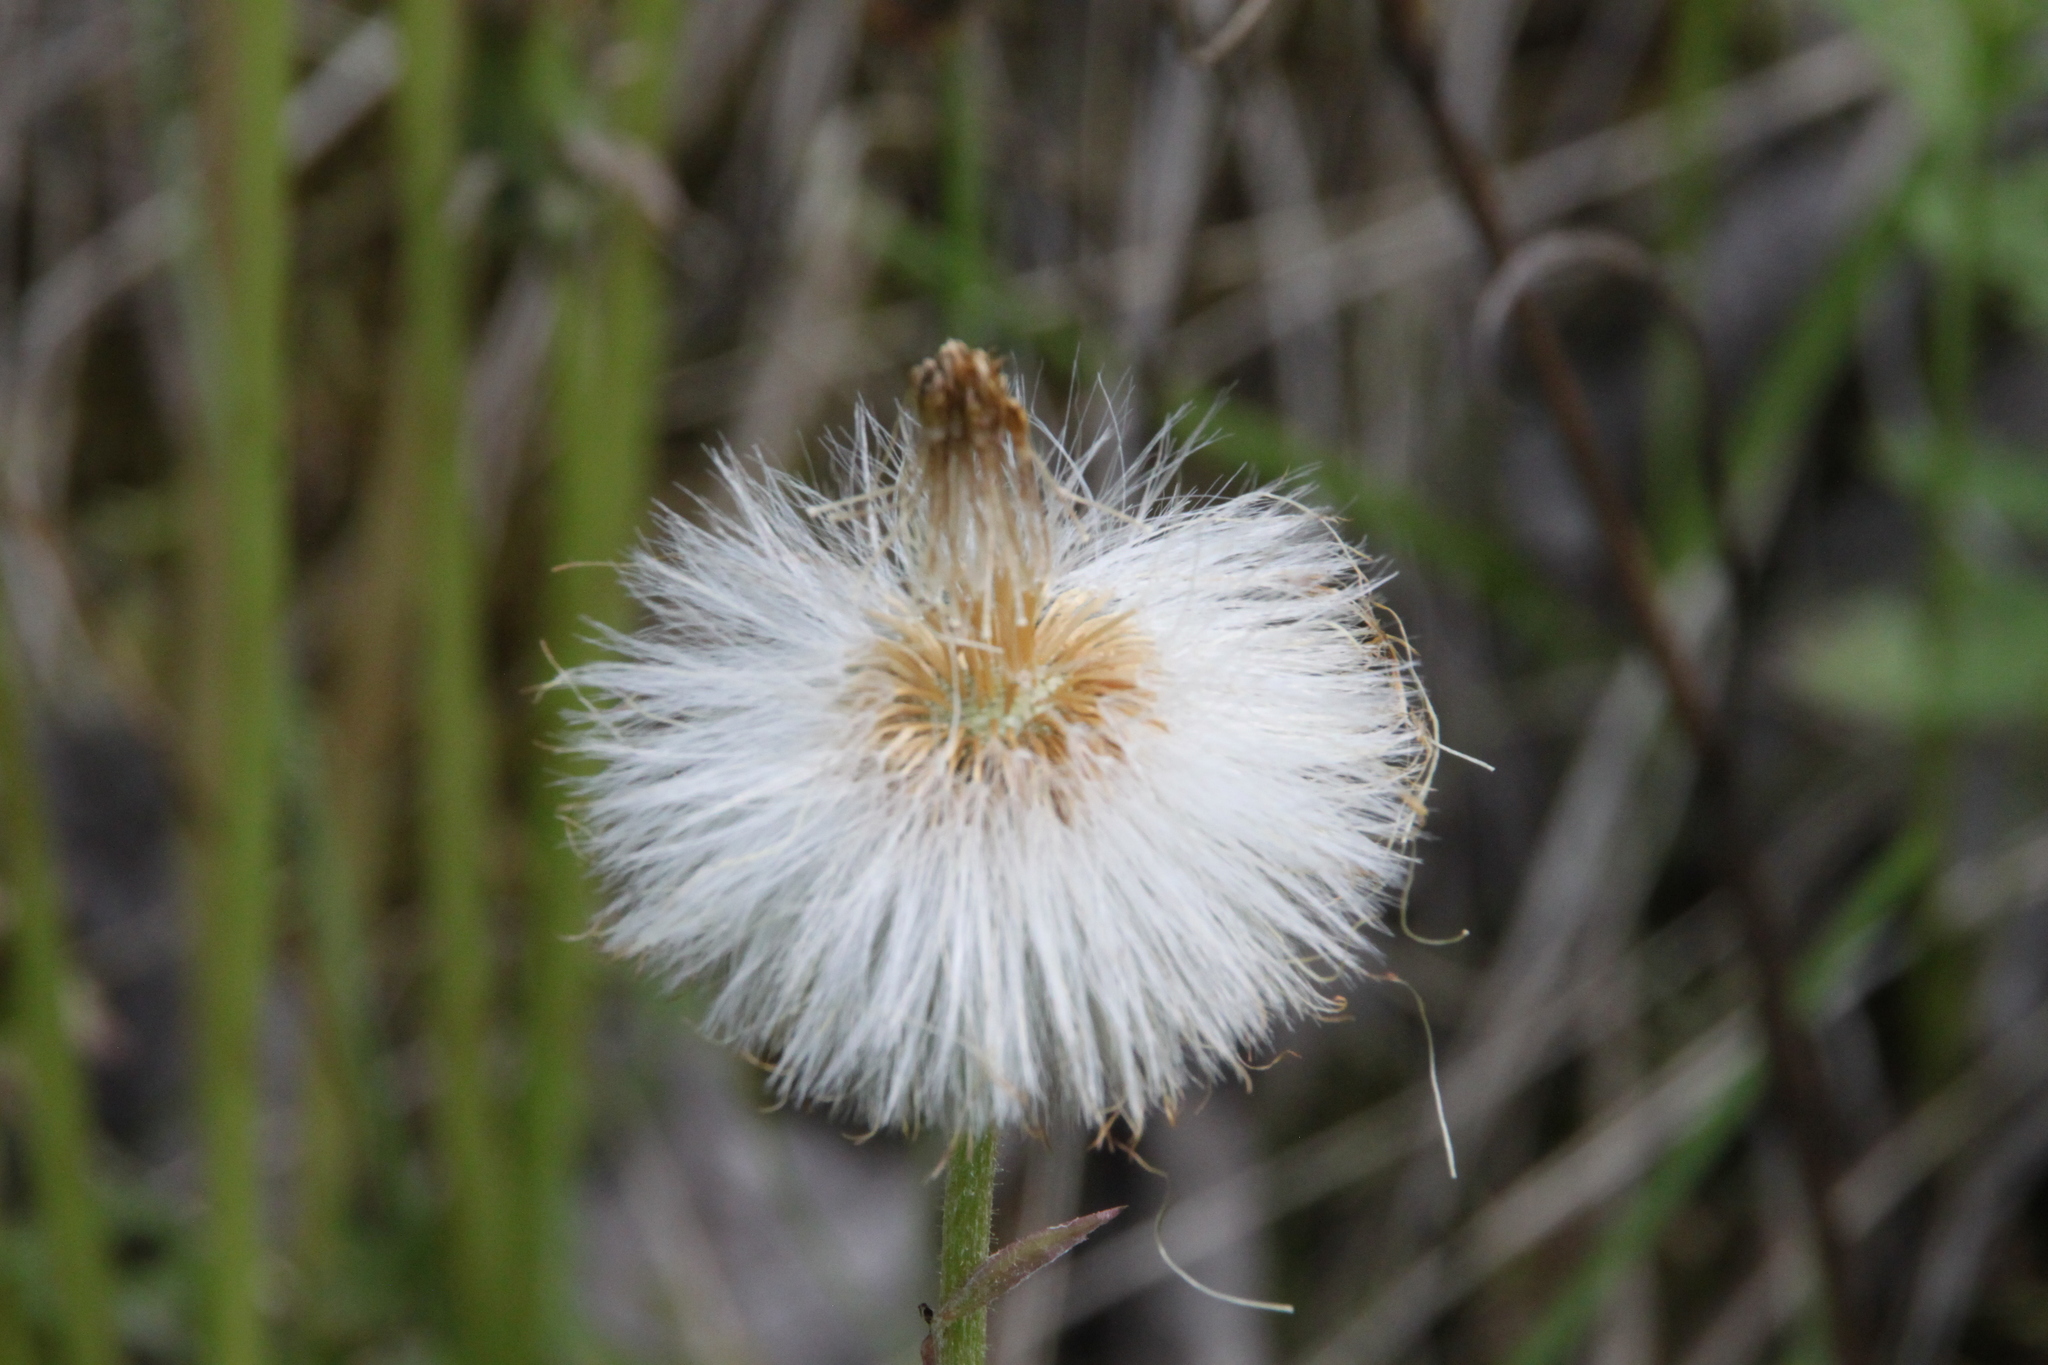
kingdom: Plantae
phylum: Tracheophyta
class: Magnoliopsida
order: Asterales
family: Asteraceae
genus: Tussilago
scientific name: Tussilago farfara
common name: Coltsfoot
